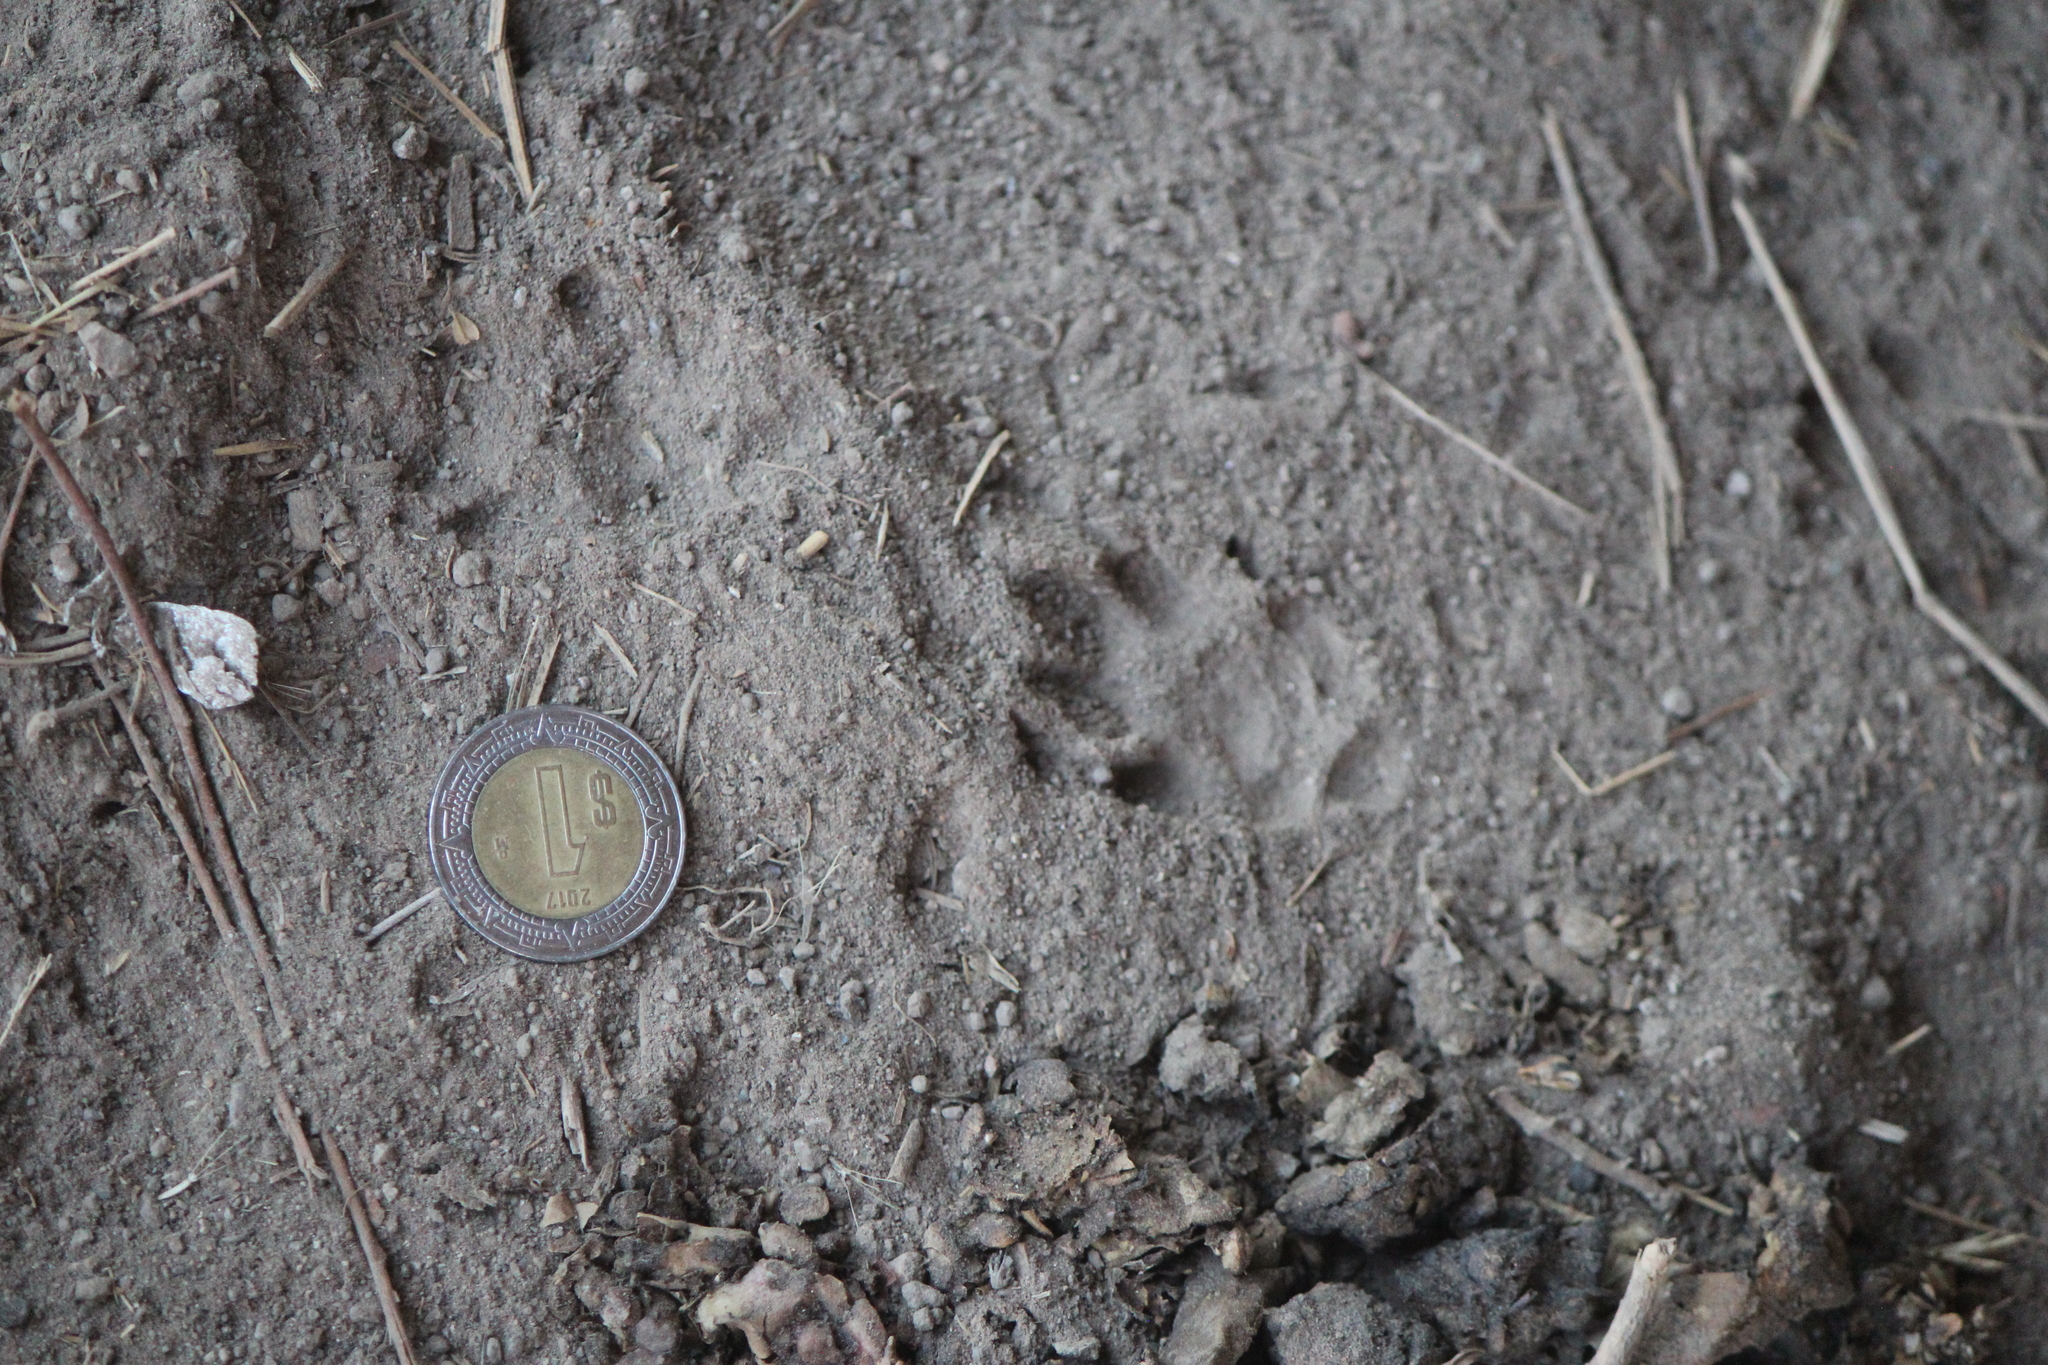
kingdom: Animalia
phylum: Chordata
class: Mammalia
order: Carnivora
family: Mephitidae
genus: Mephitis
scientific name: Mephitis macroura
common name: Hooded skunk
